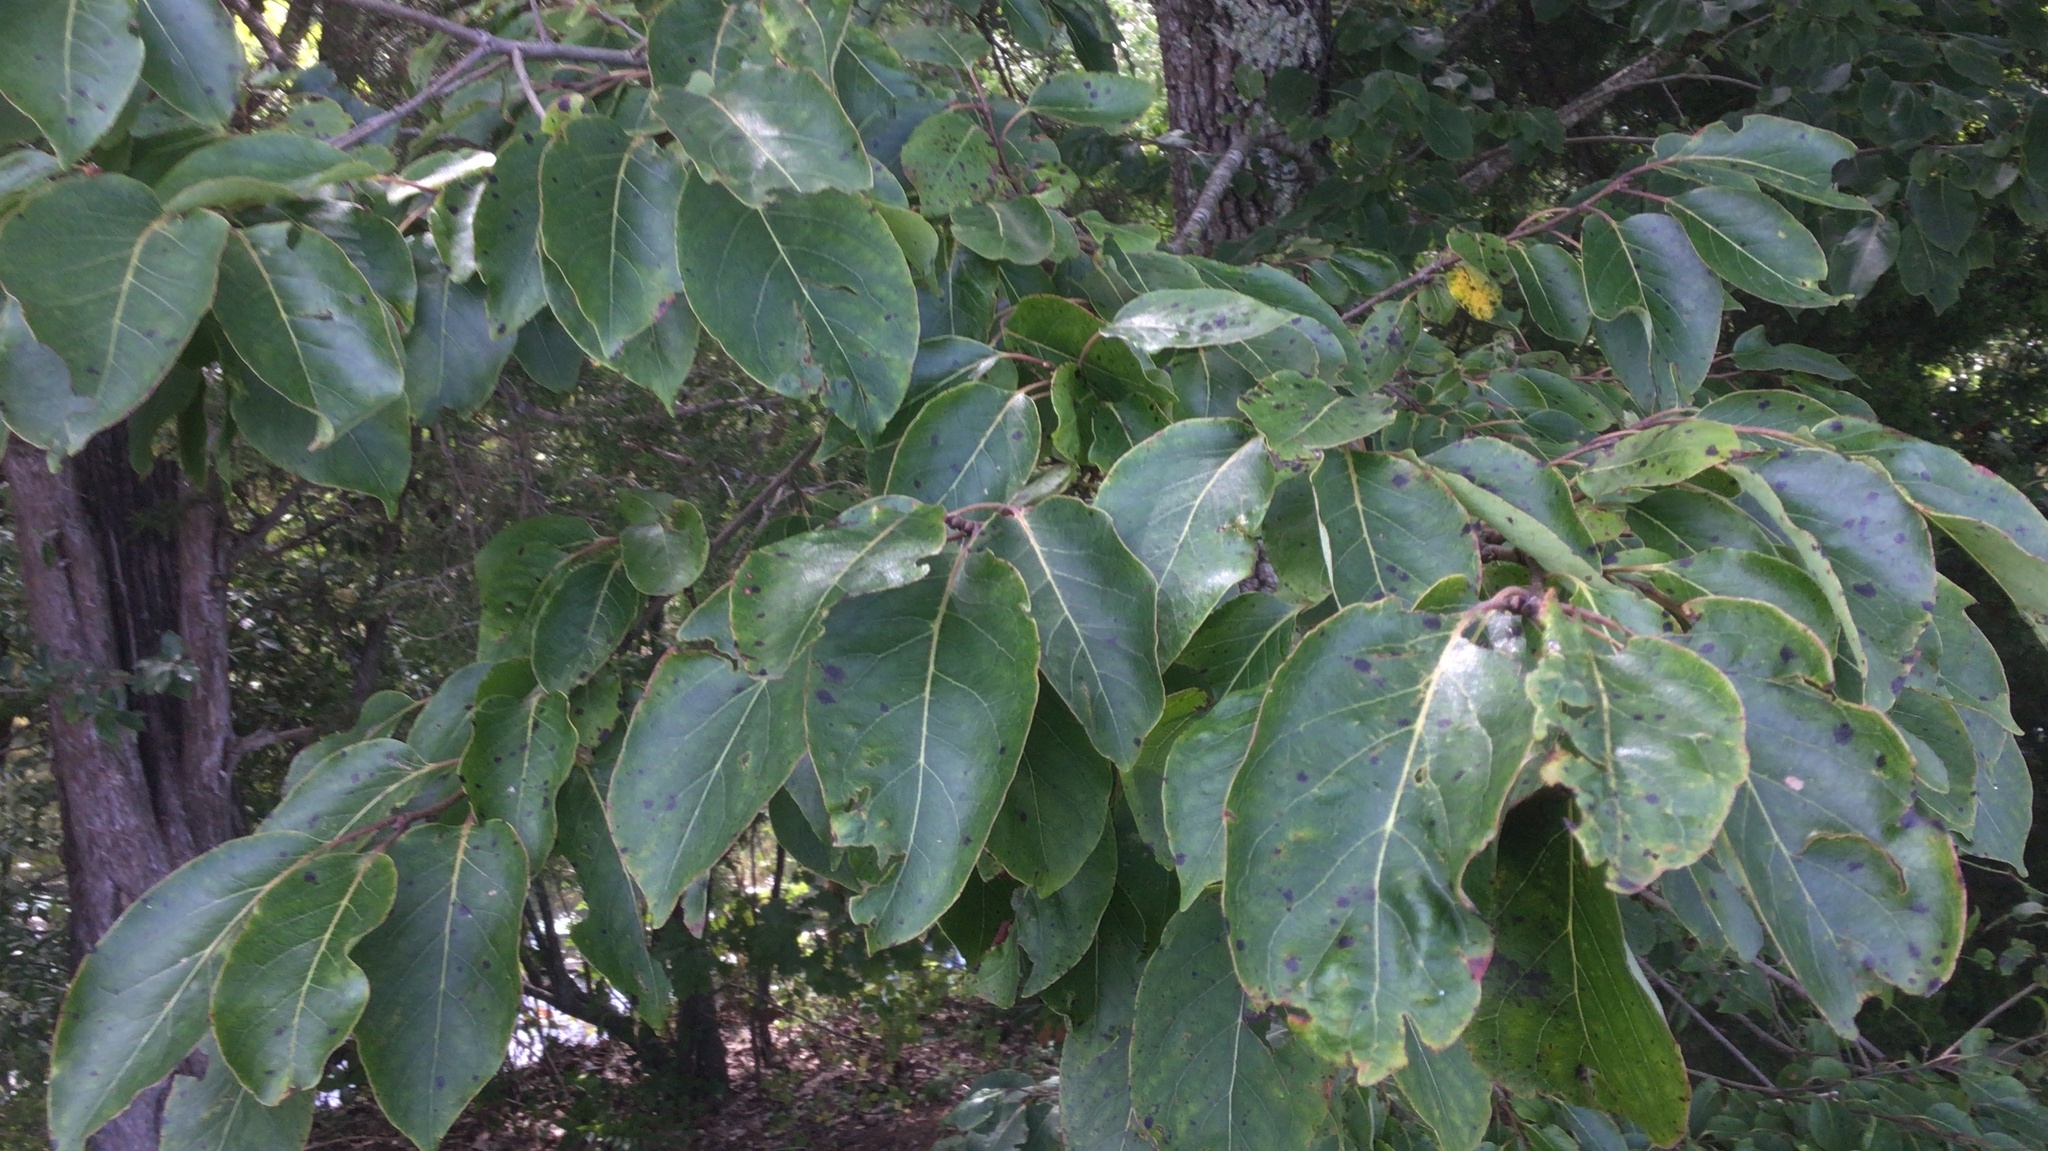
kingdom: Plantae
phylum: Tracheophyta
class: Magnoliopsida
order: Ericales
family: Ebenaceae
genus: Diospyros
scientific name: Diospyros virginiana
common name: Persimmon
